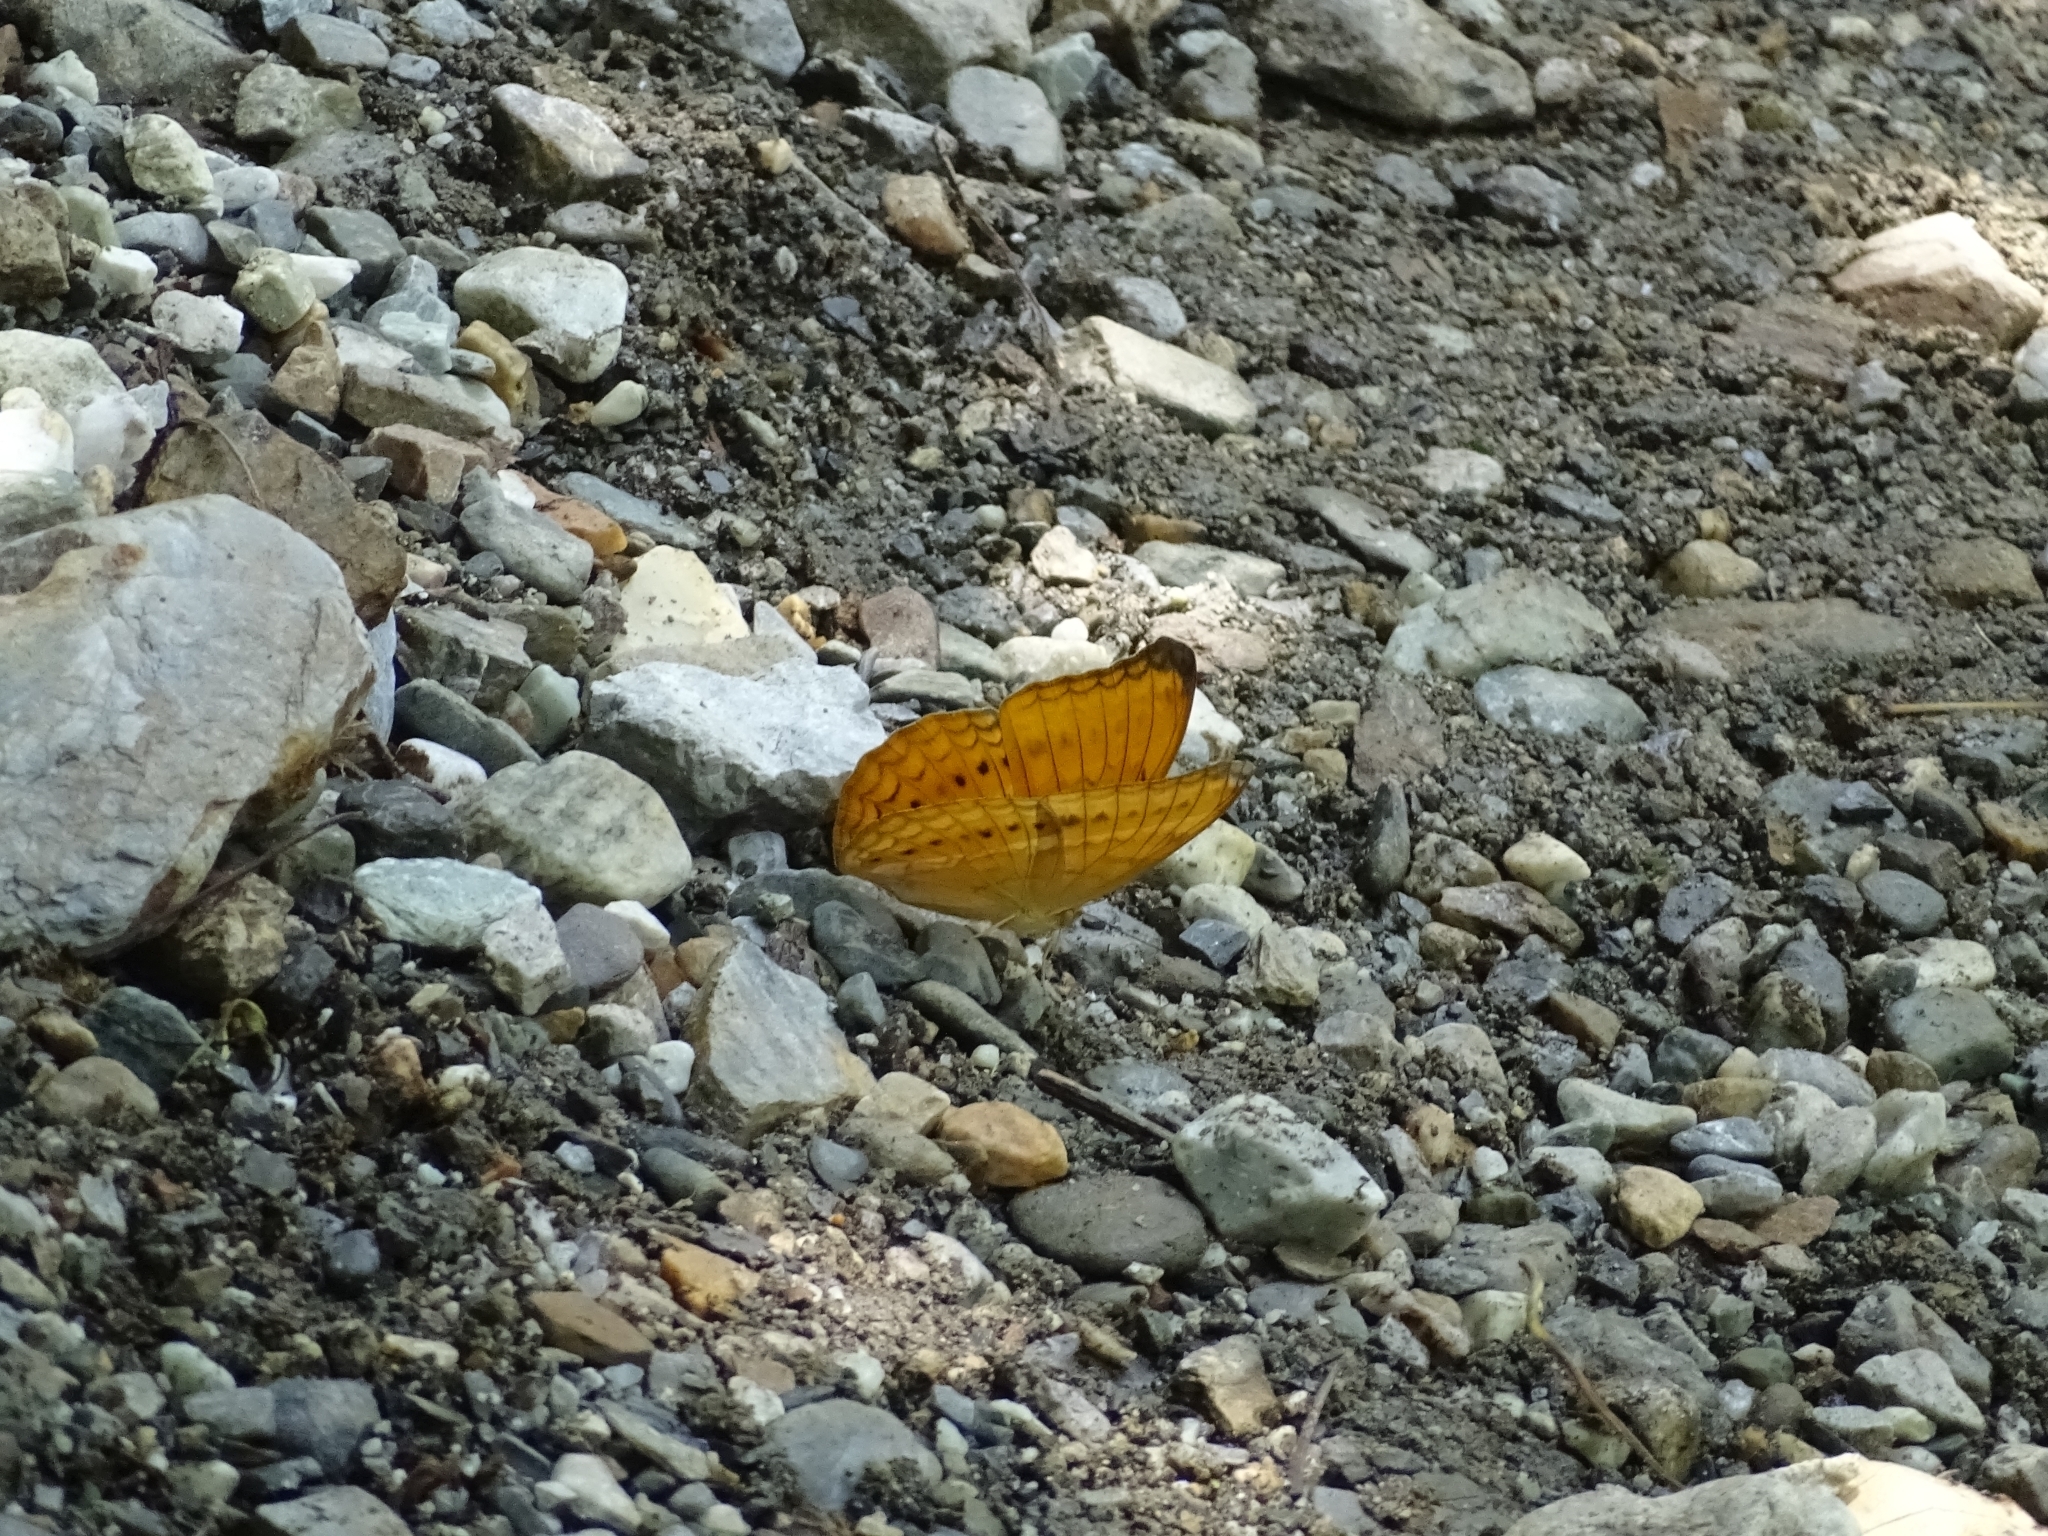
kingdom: Animalia
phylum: Arthropoda
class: Insecta
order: Lepidoptera
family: Nymphalidae
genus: Cirrochroa
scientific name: Cirrochroa aoris
